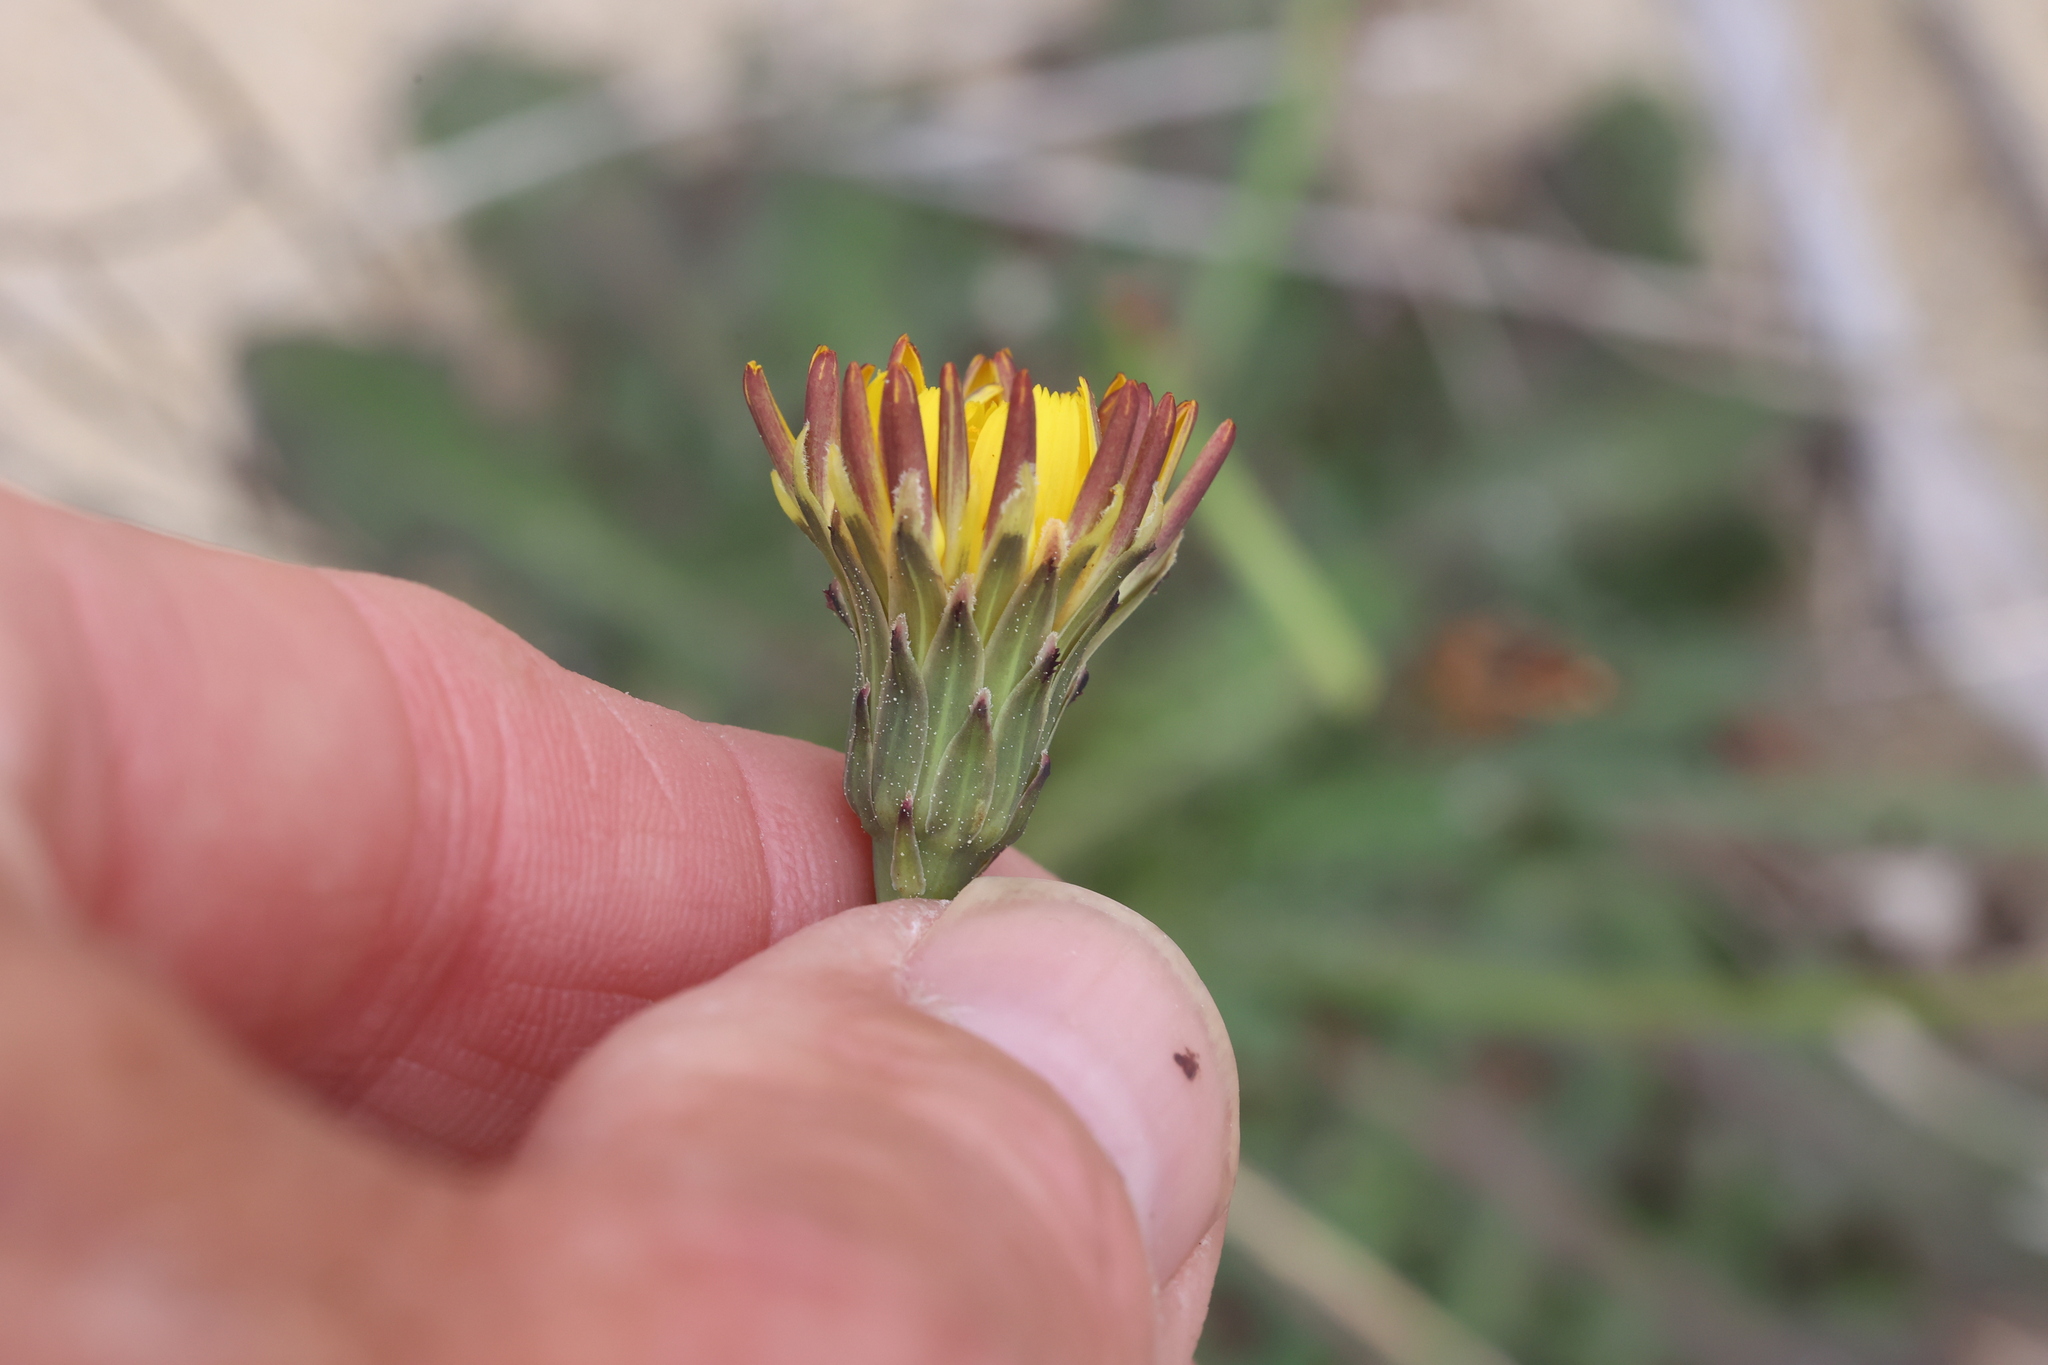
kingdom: Plantae
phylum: Tracheophyta
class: Magnoliopsida
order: Asterales
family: Asteraceae
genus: Hypochaeris
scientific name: Hypochaeris radicata
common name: Flatweed
